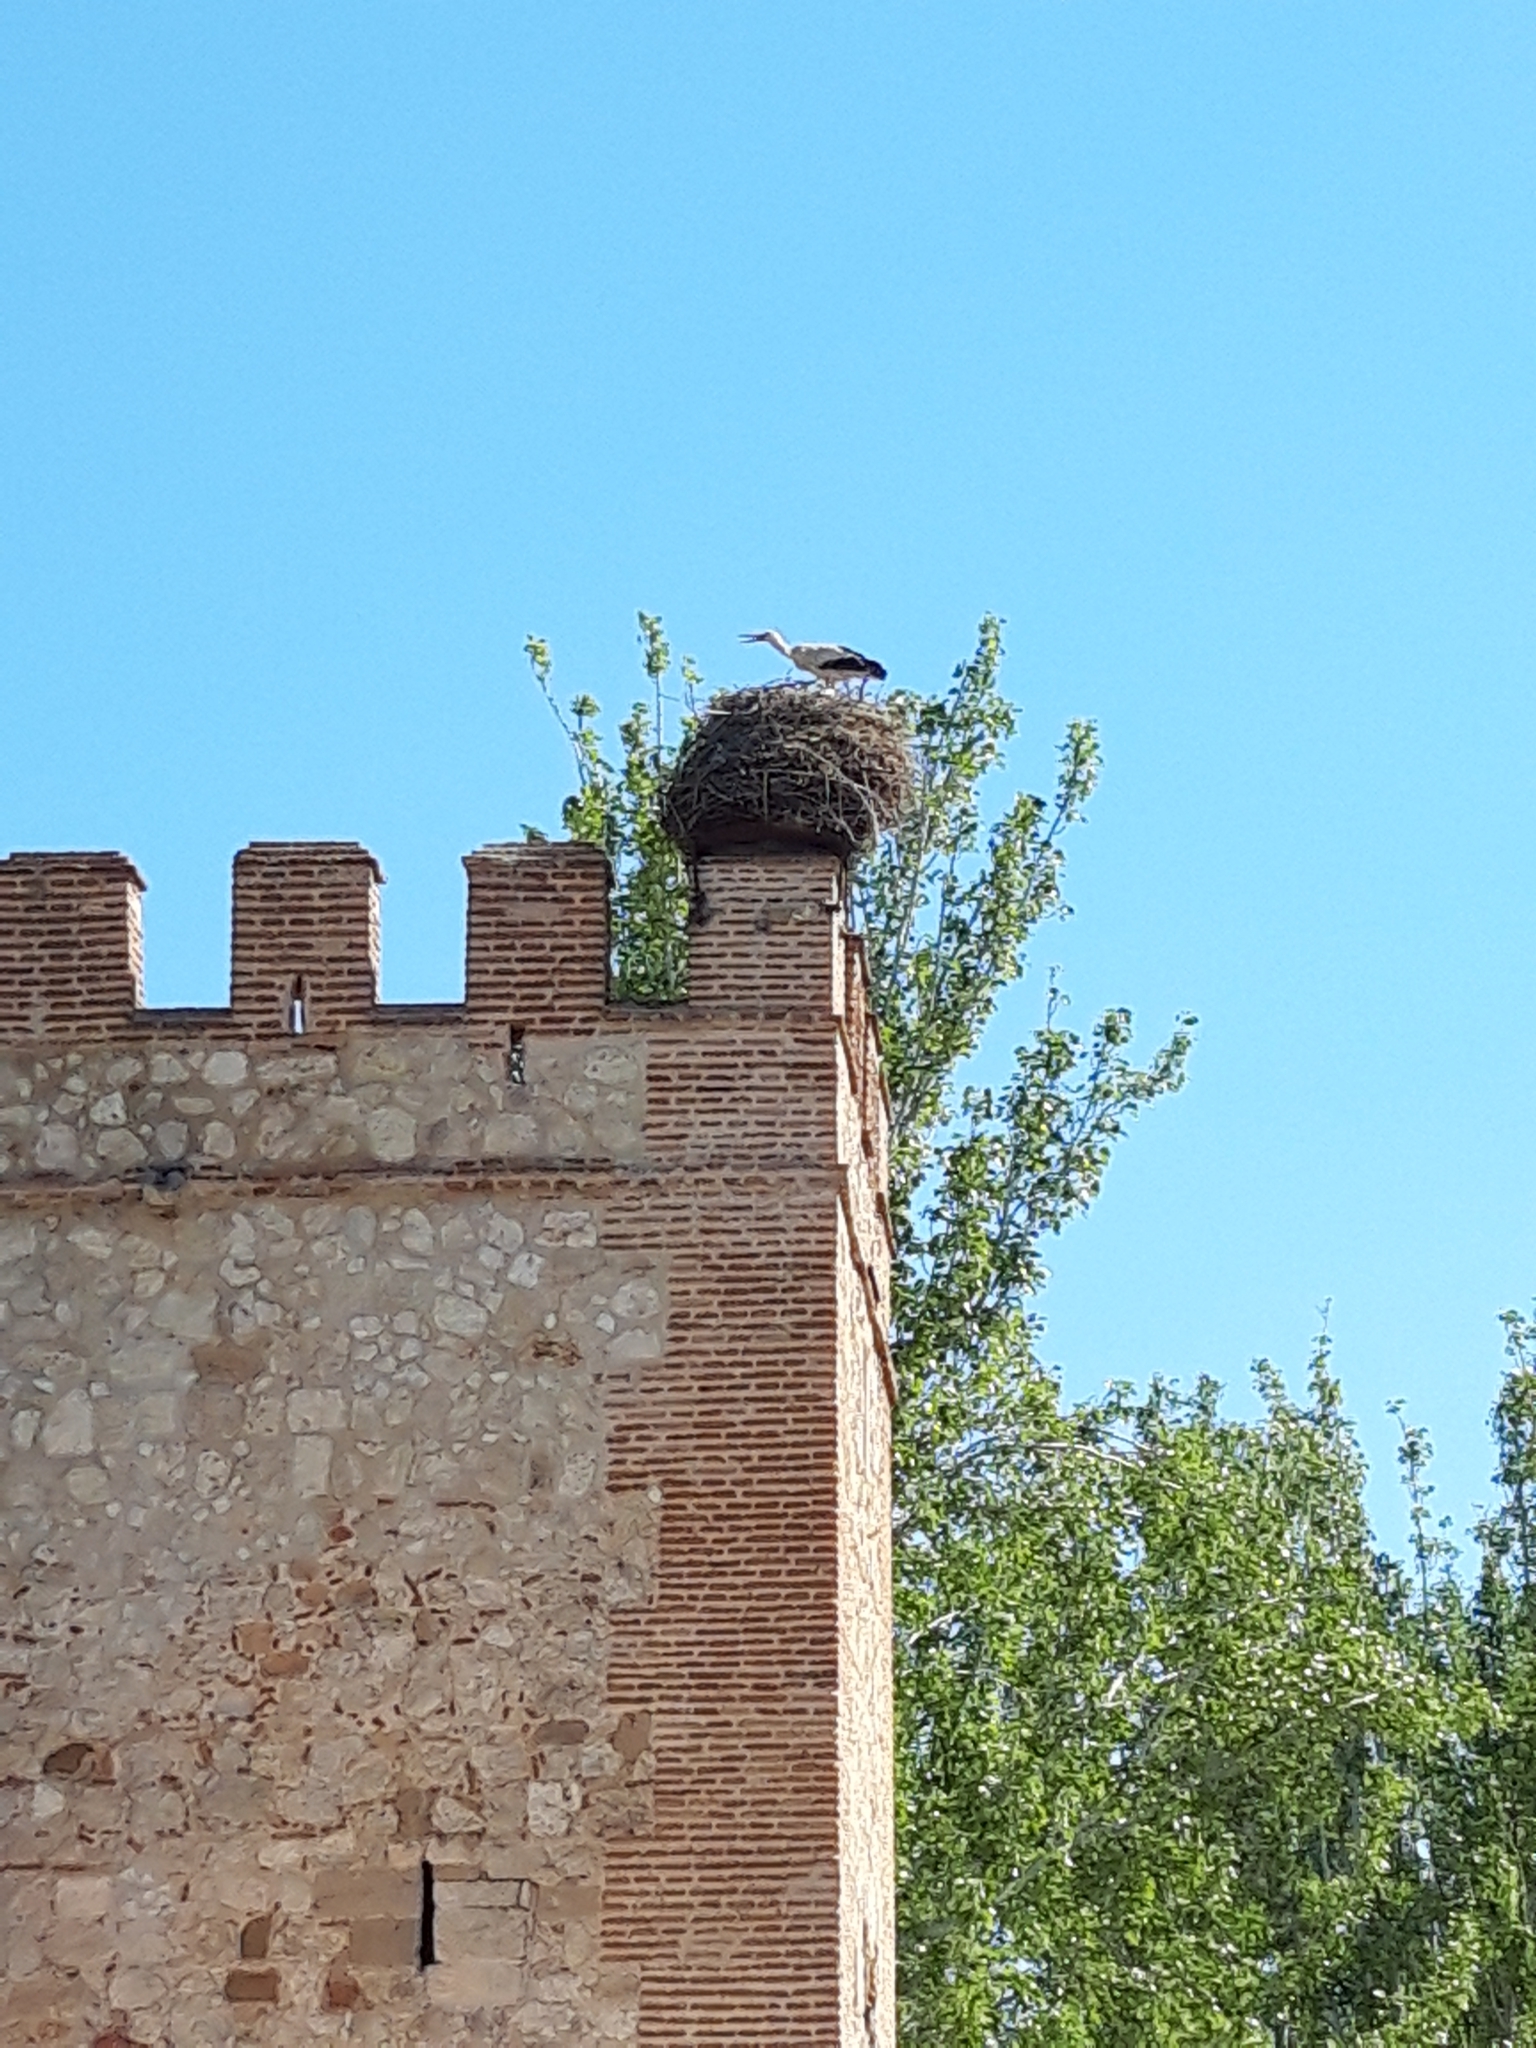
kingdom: Animalia
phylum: Chordata
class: Aves
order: Ciconiiformes
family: Ciconiidae
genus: Ciconia
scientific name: Ciconia ciconia
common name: White stork
